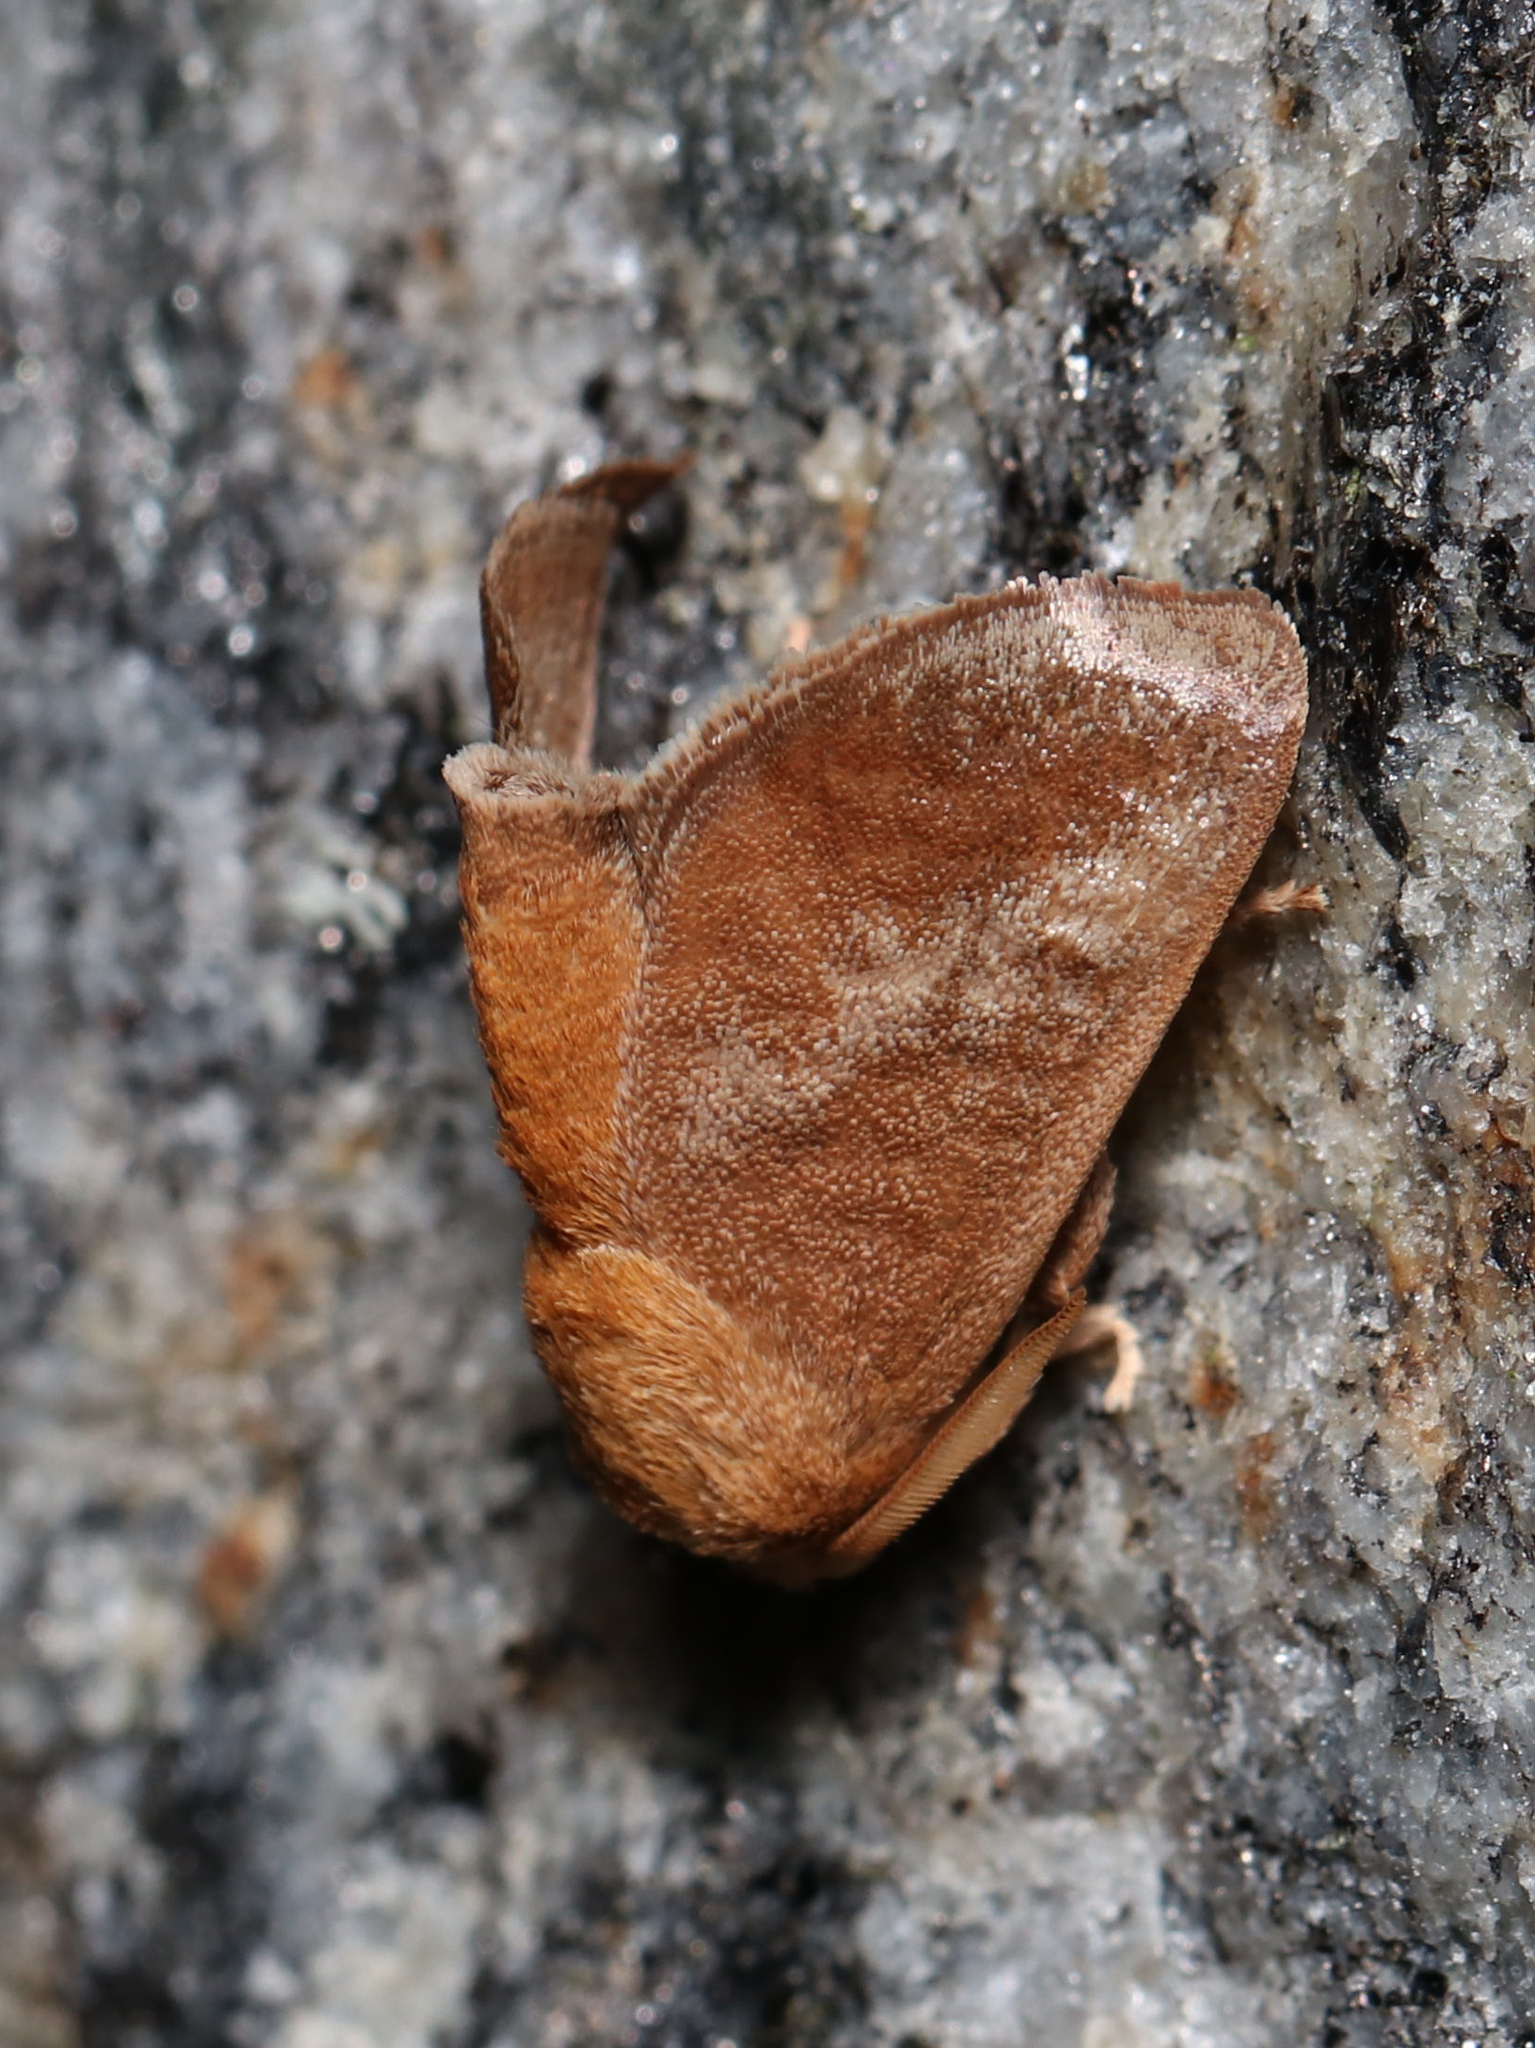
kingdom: Animalia
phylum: Arthropoda
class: Insecta
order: Lepidoptera
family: Limacodidae
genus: Isa
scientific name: Isa textula
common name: Crowned slug moth
